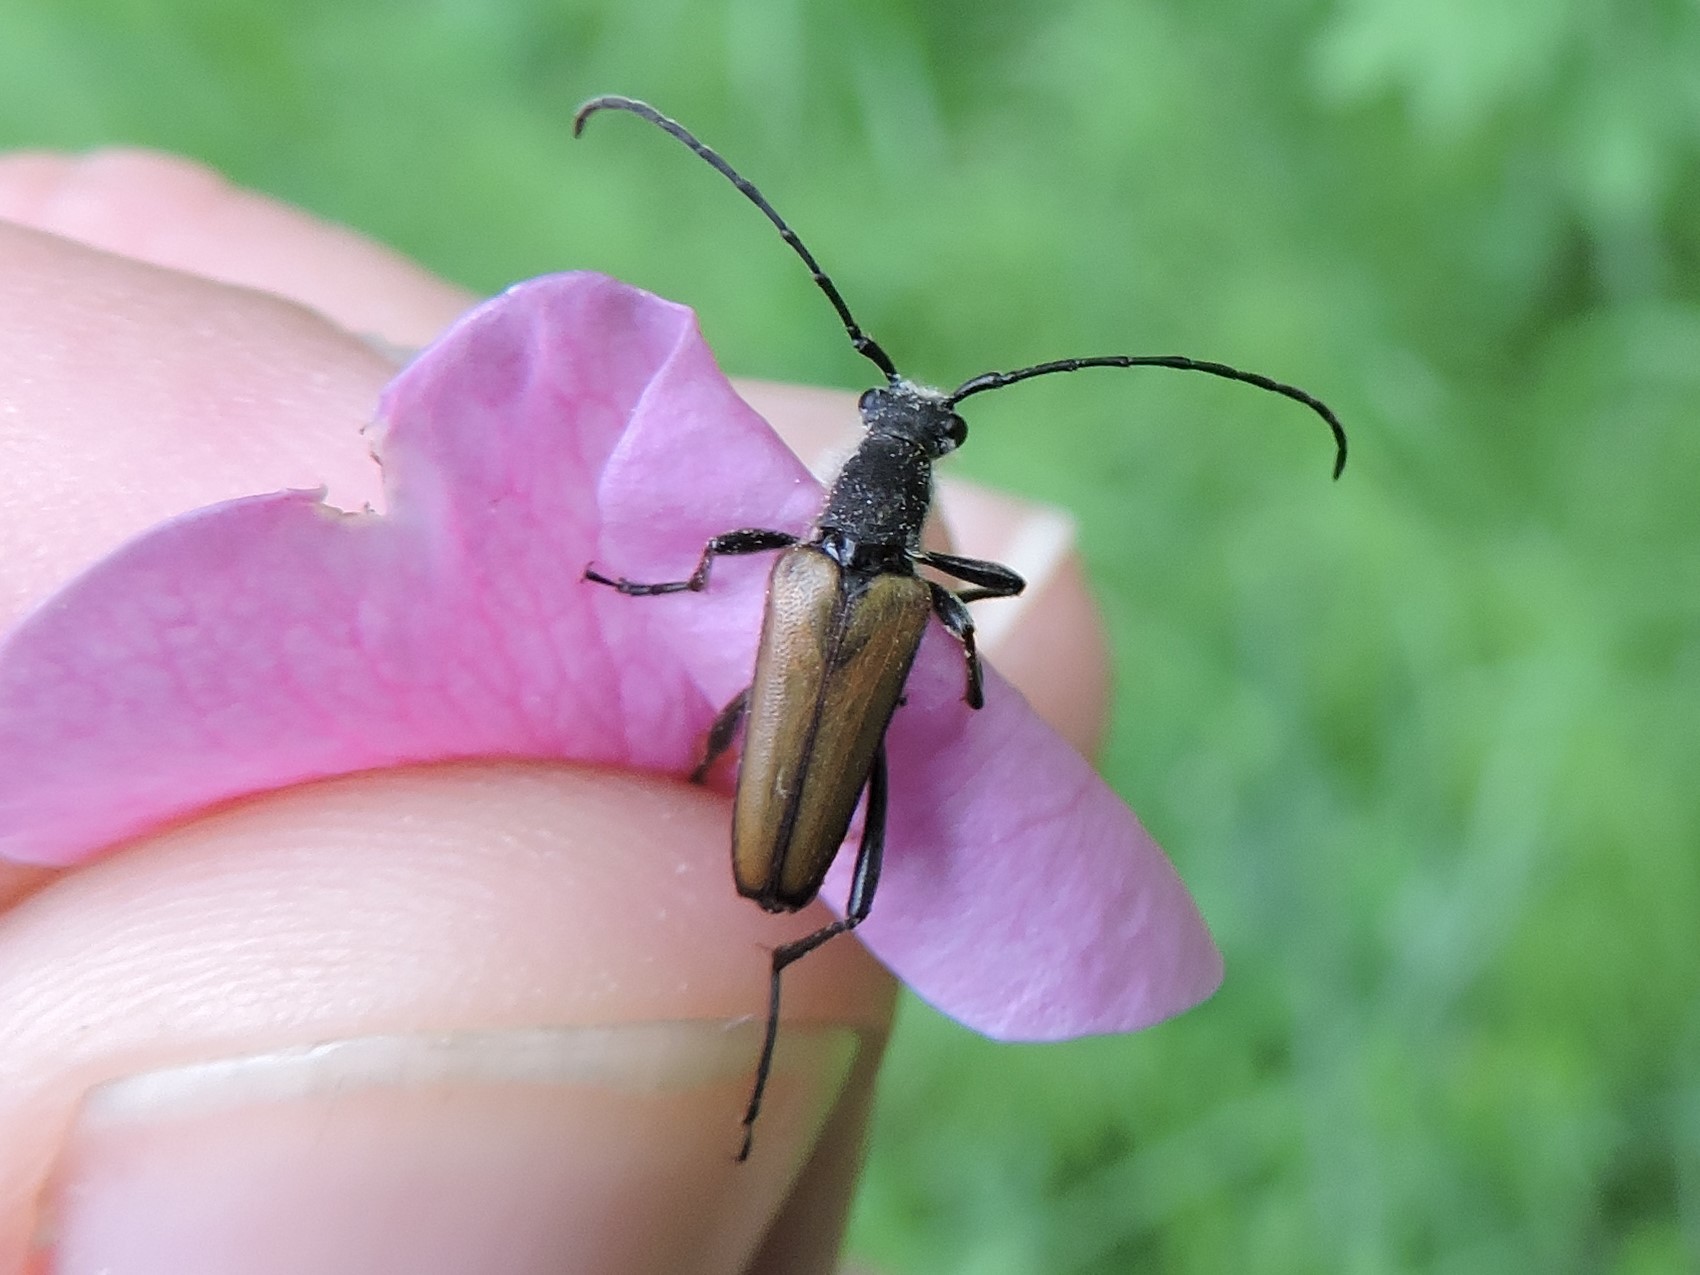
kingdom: Animalia
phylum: Arthropoda
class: Insecta
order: Coleoptera
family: Cerambycidae
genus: Anastrangalia
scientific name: Anastrangalia reyi
